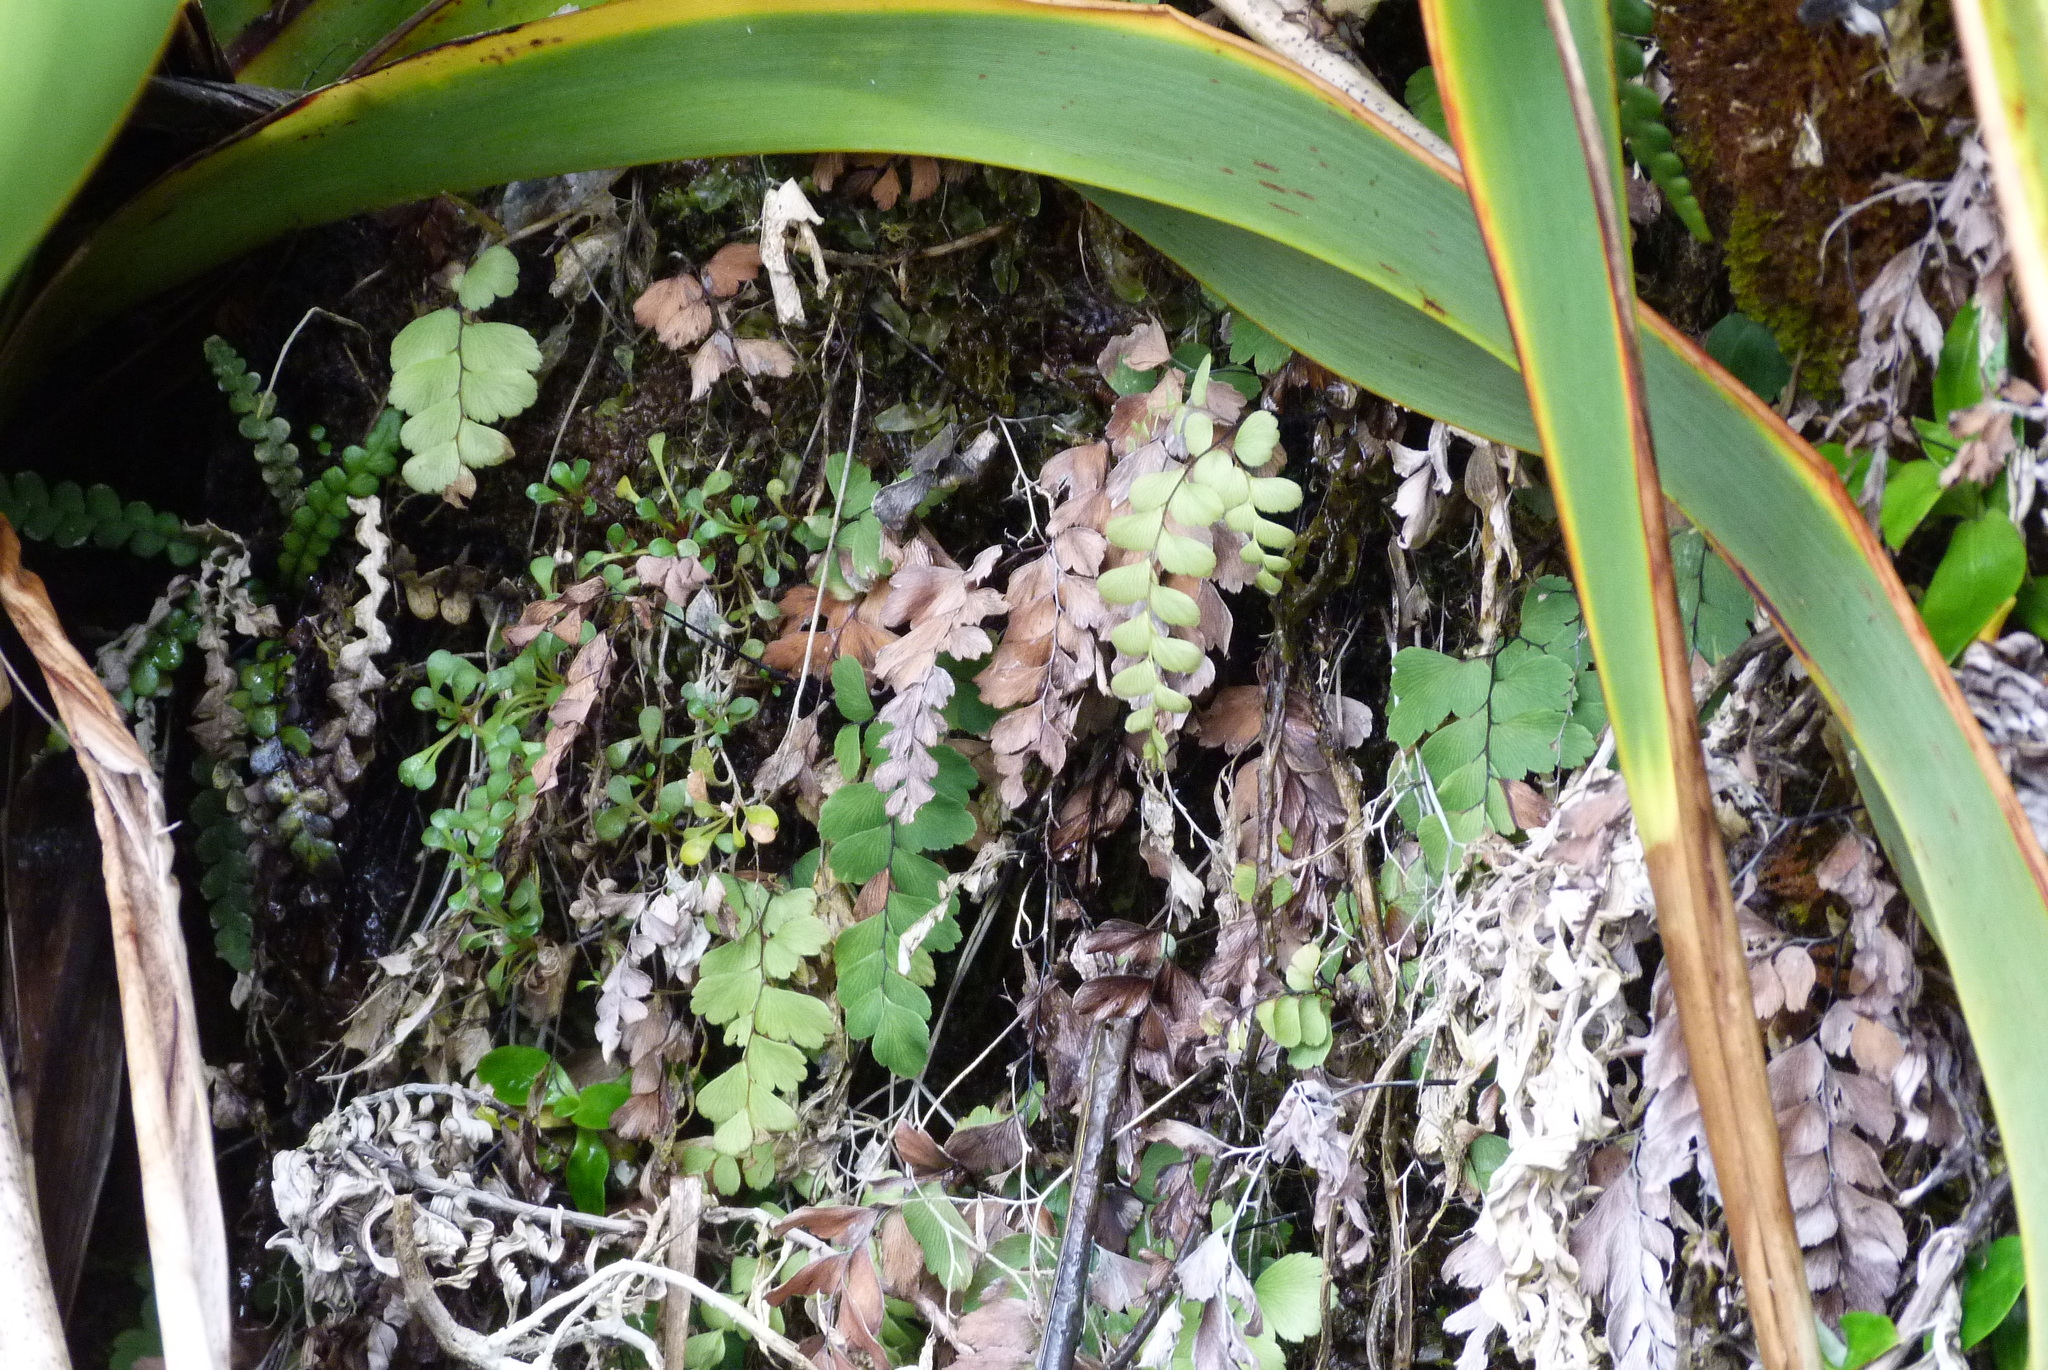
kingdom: Plantae
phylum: Tracheophyta
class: Polypodiopsida
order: Polypodiales
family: Pteridaceae
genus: Adiantum
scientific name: Adiantum cunninghamii
